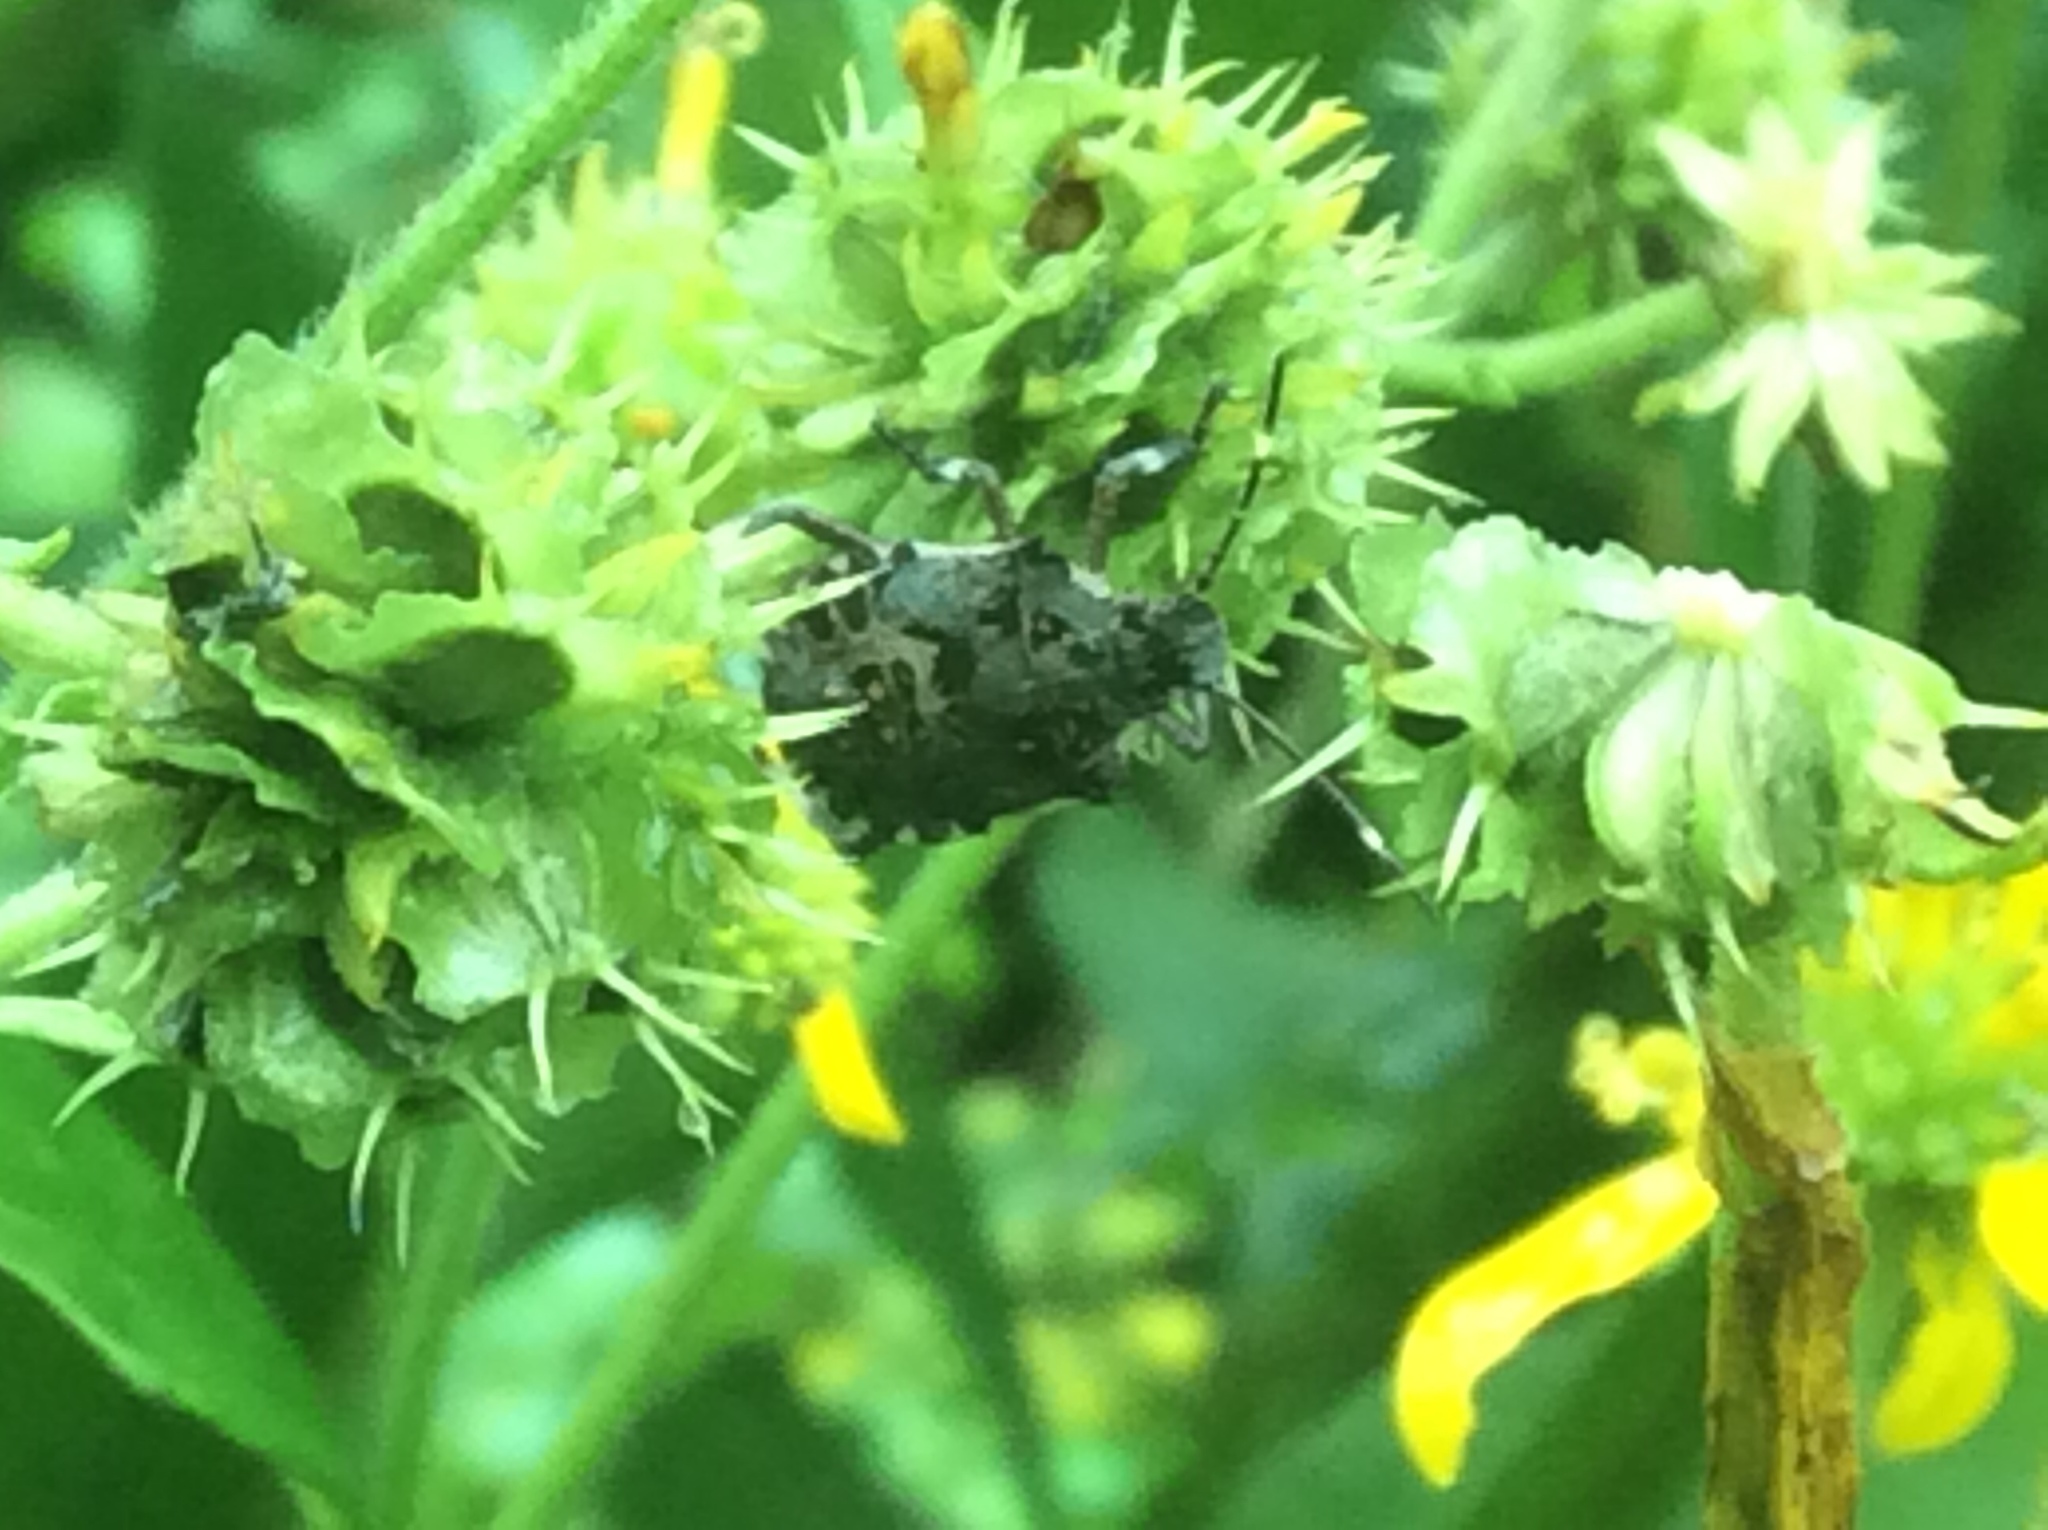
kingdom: Animalia
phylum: Arthropoda
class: Insecta
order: Hemiptera
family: Pentatomidae
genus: Halyomorpha
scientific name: Halyomorpha halys
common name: Brown marmorated stink bug
